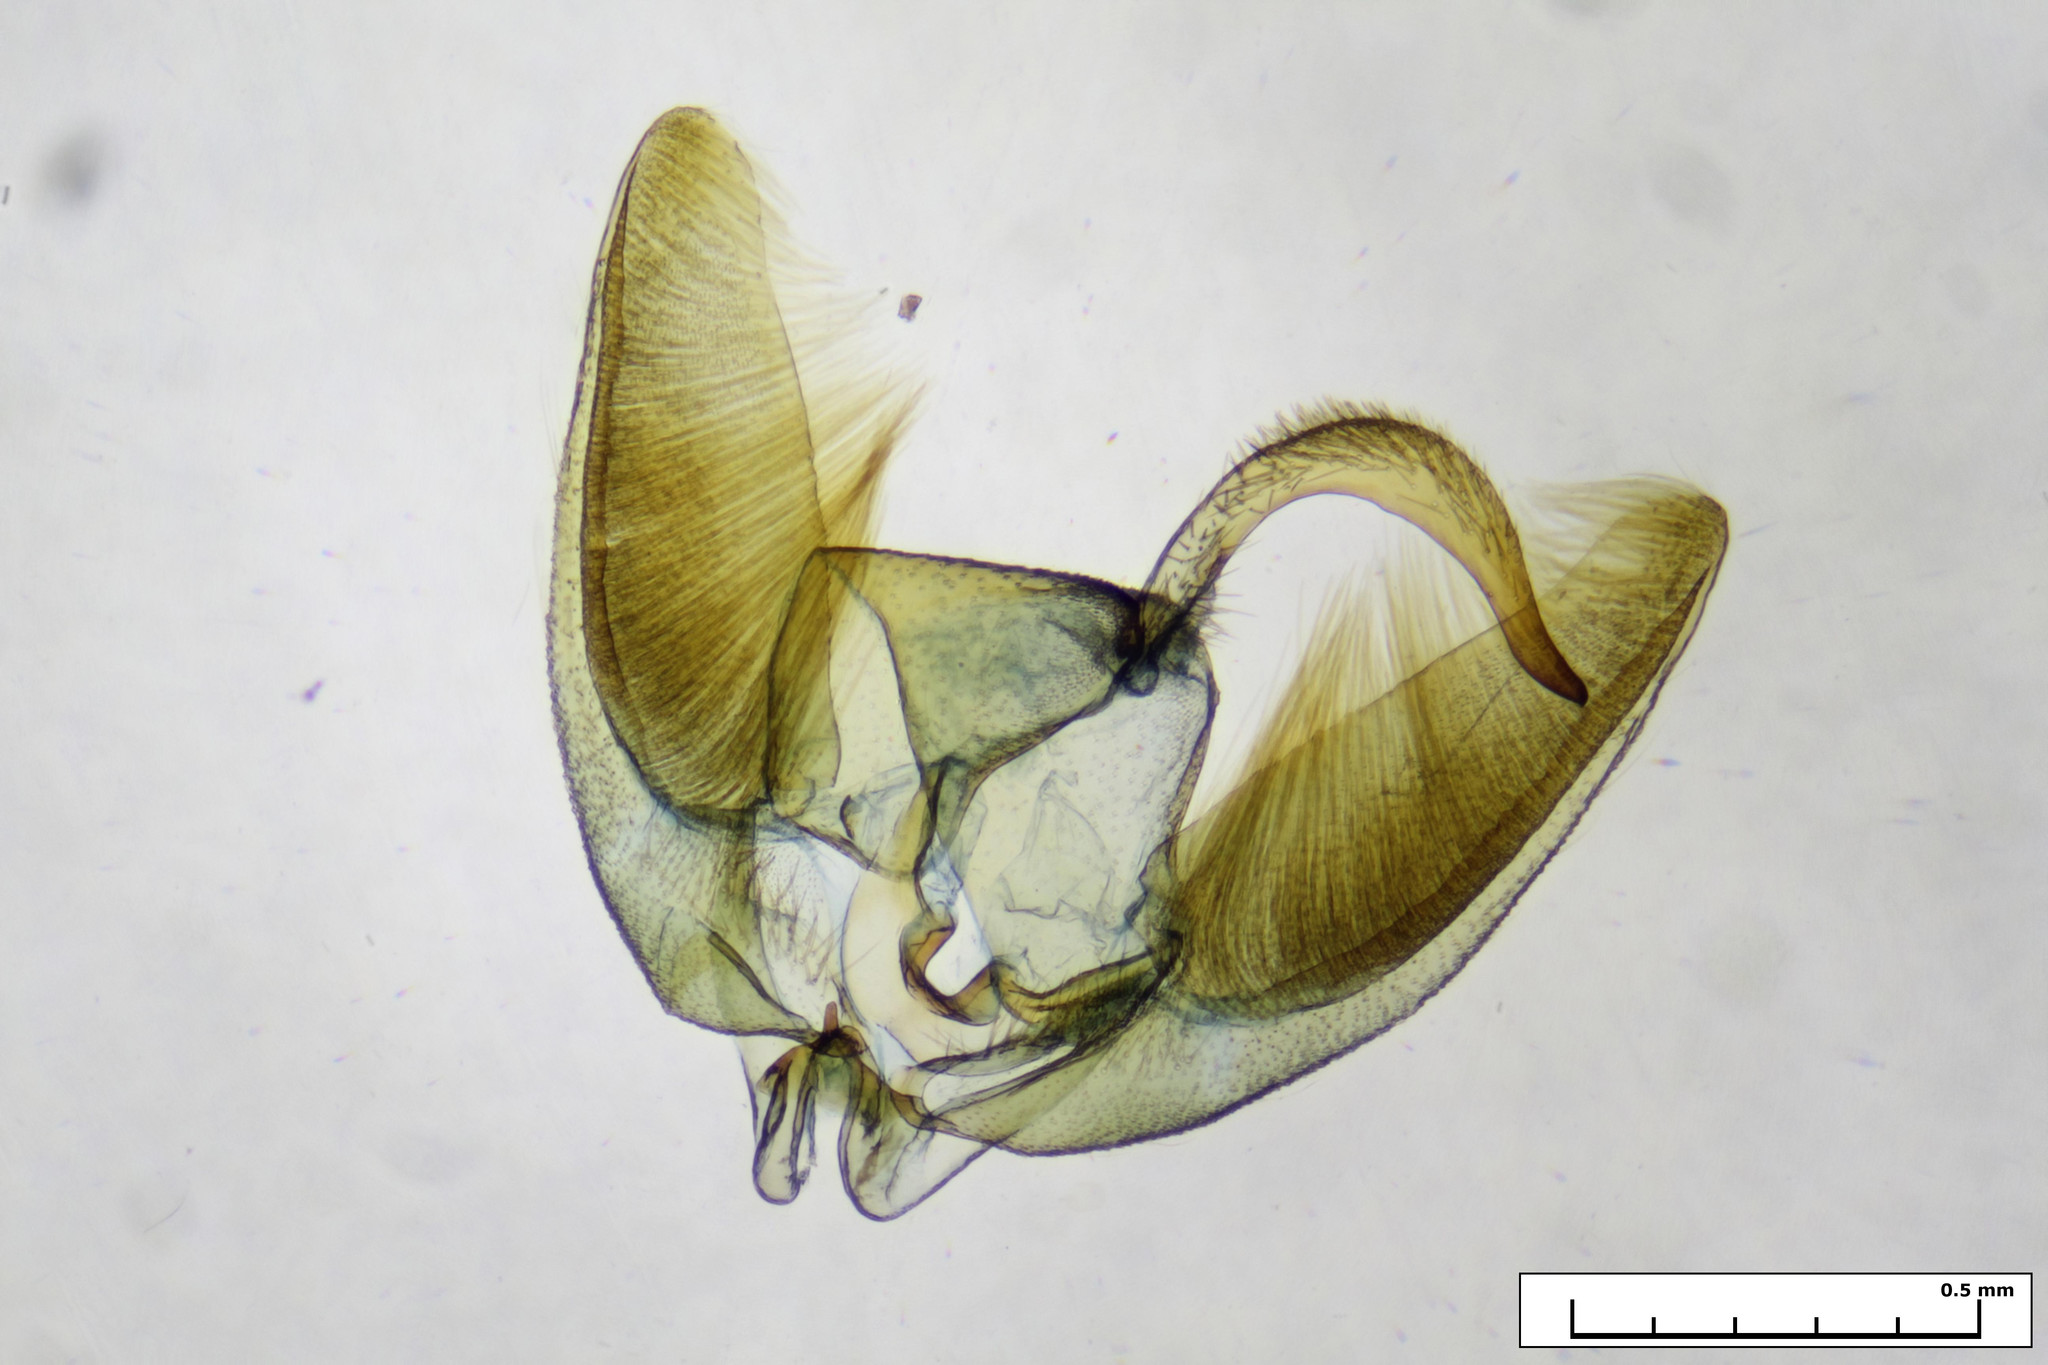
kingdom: Animalia
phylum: Arthropoda
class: Insecta
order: Lepidoptera
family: Pterophoridae
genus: Gillmeria
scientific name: Gillmeria ochrodactyla
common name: Tansy plume
